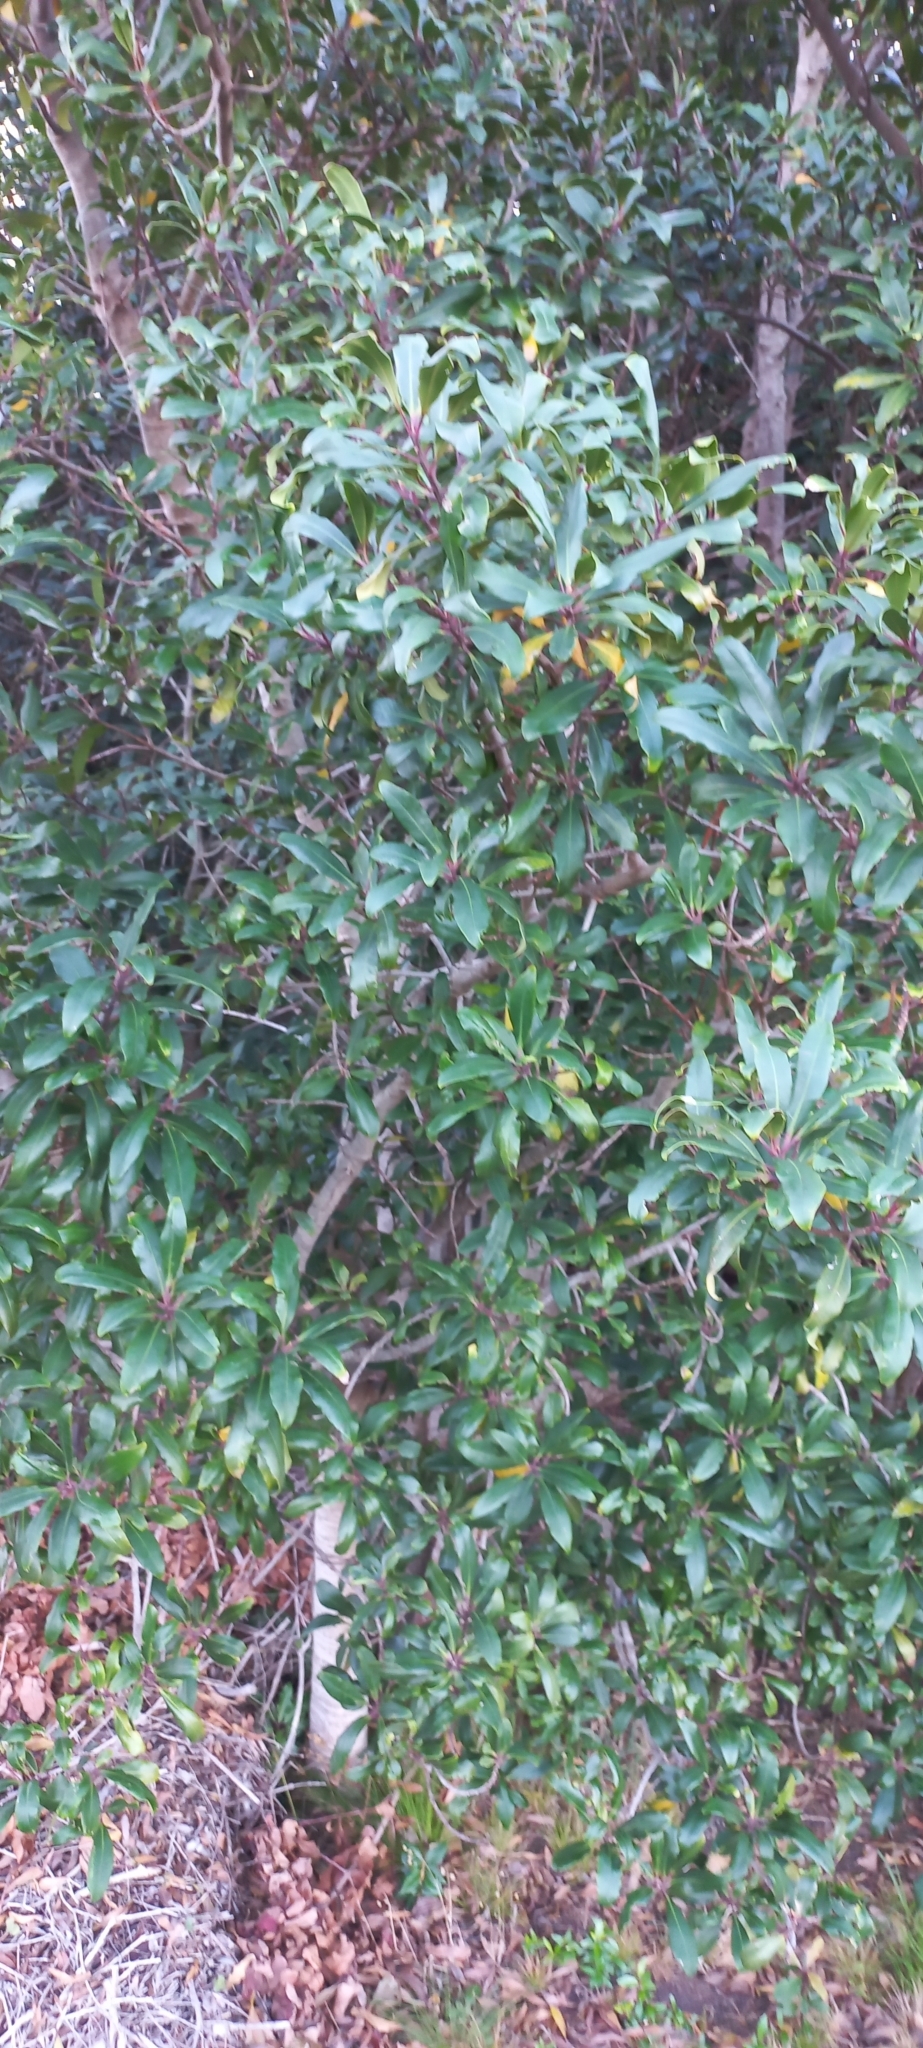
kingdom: Plantae
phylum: Tracheophyta
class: Magnoliopsida
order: Ericales
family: Primulaceae
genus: Myrsine
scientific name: Myrsine melanophloeos
